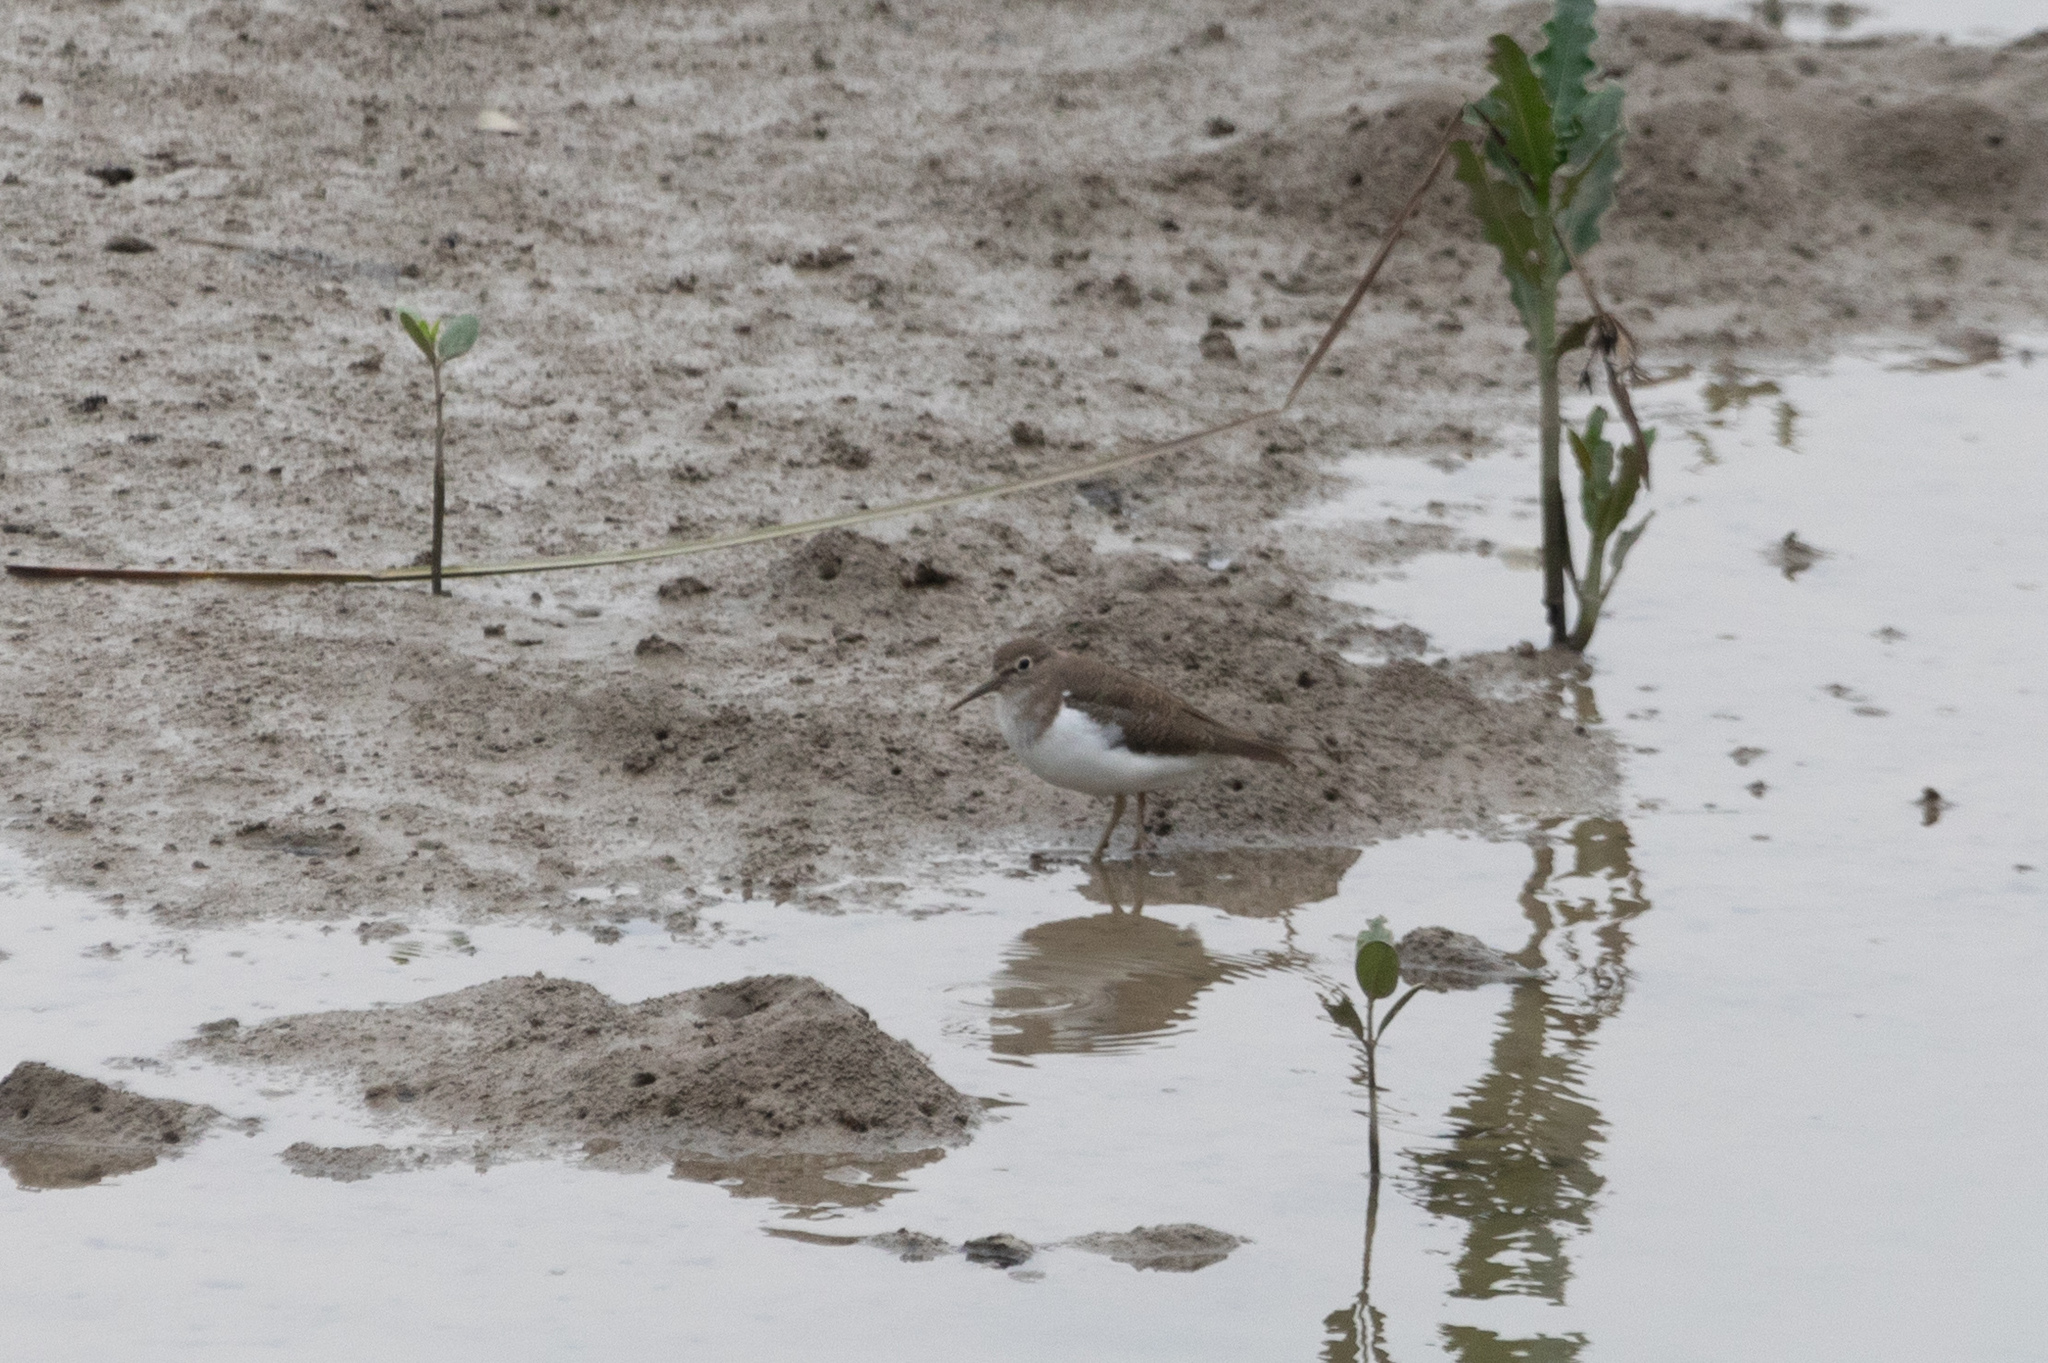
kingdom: Animalia
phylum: Chordata
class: Aves
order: Charadriiformes
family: Scolopacidae
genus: Actitis
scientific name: Actitis hypoleucos
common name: Common sandpiper
